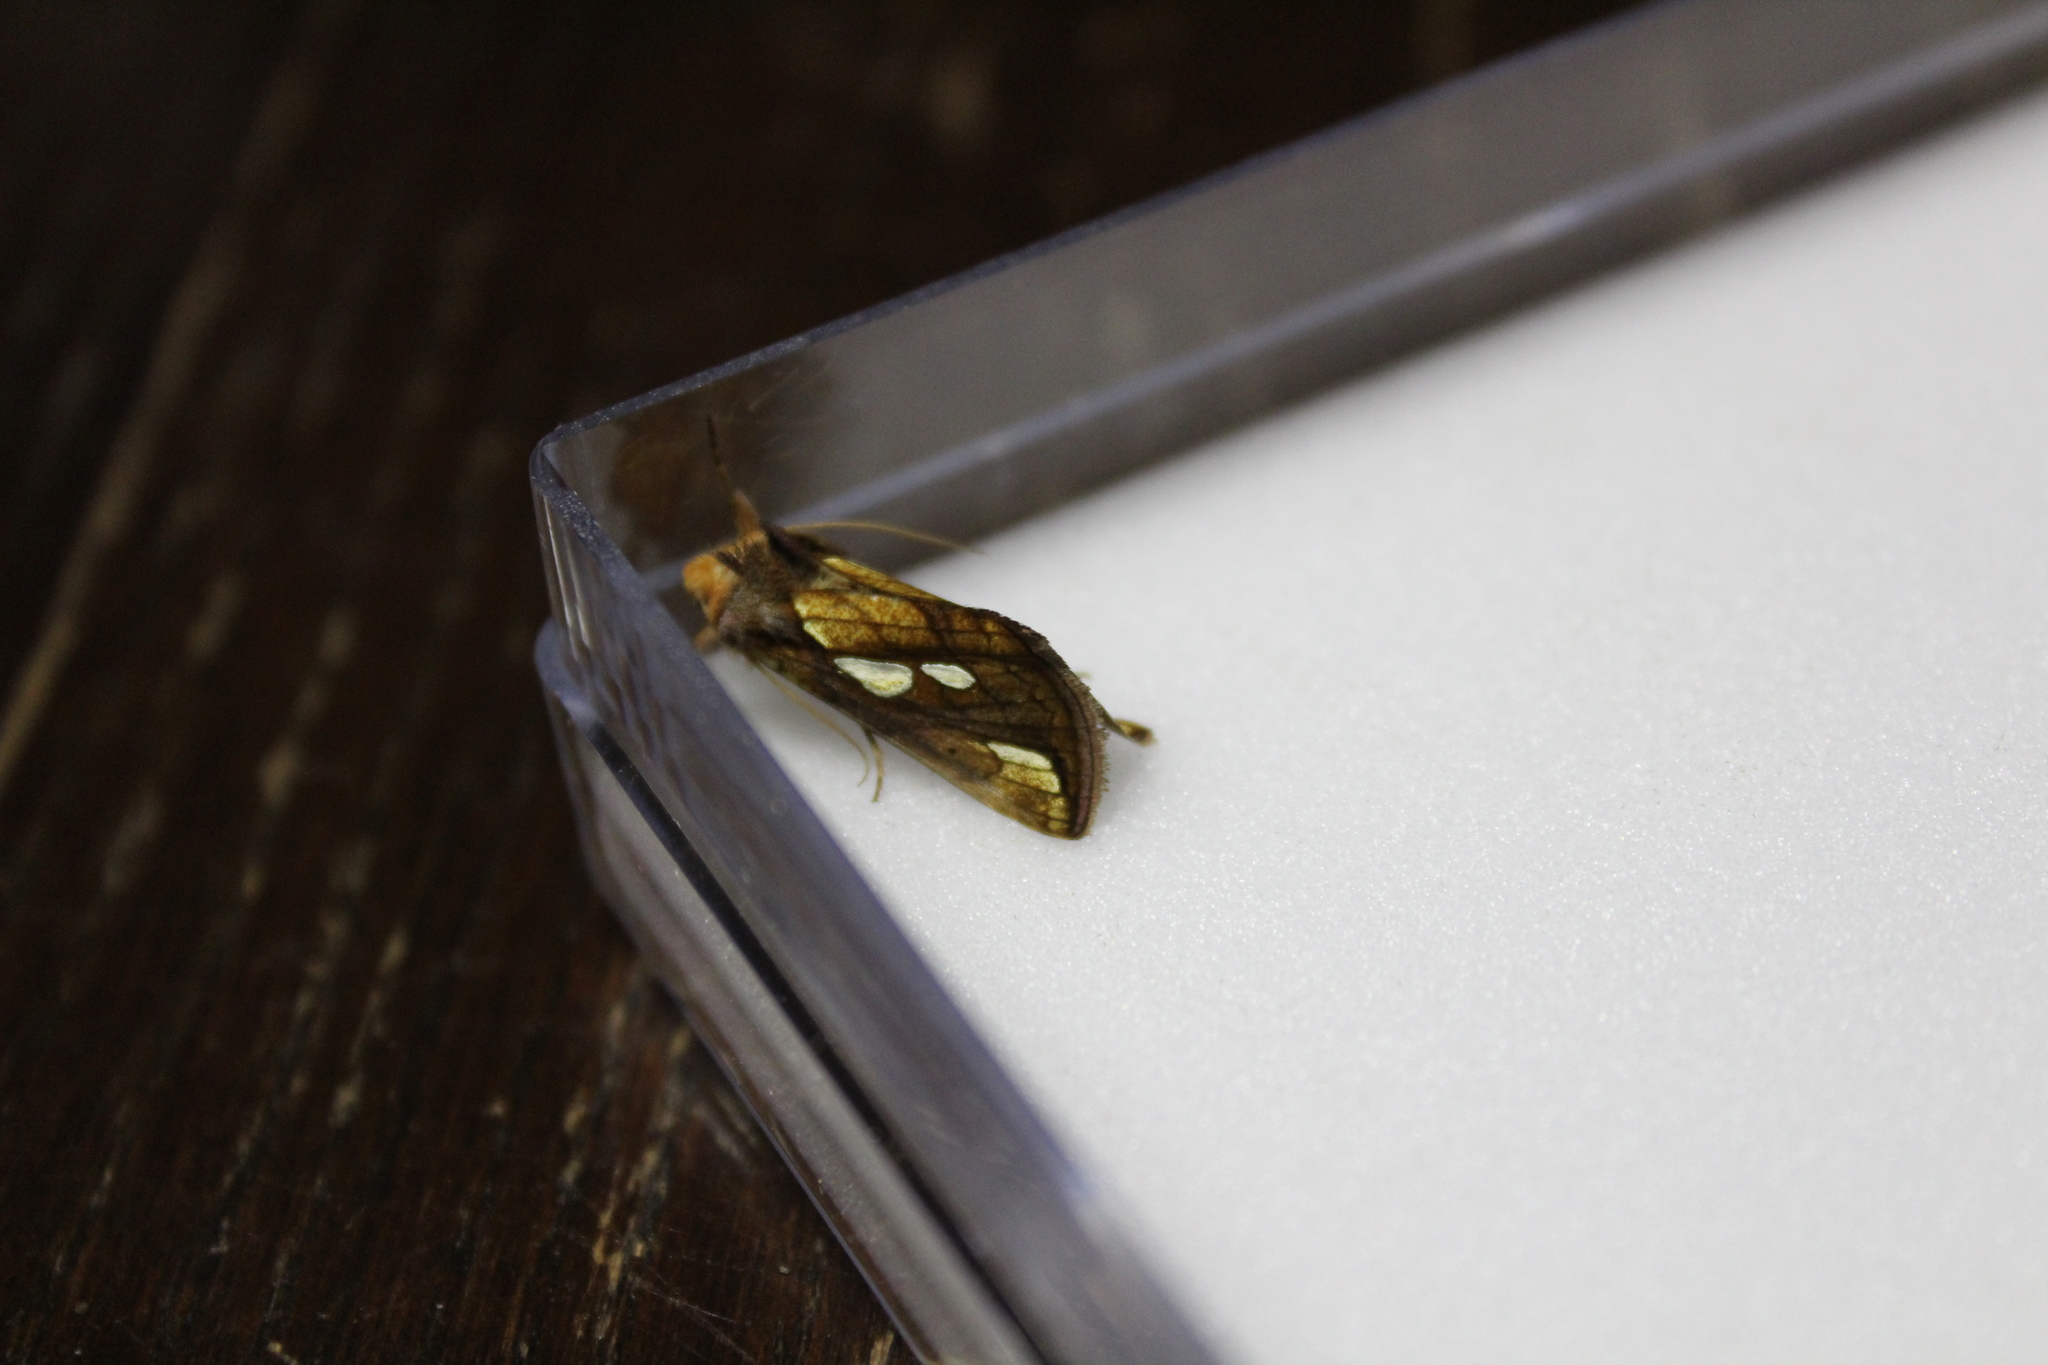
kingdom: Animalia
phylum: Arthropoda
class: Insecta
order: Lepidoptera
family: Noctuidae
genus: Plusia
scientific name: Plusia festucae
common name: Gold spot
